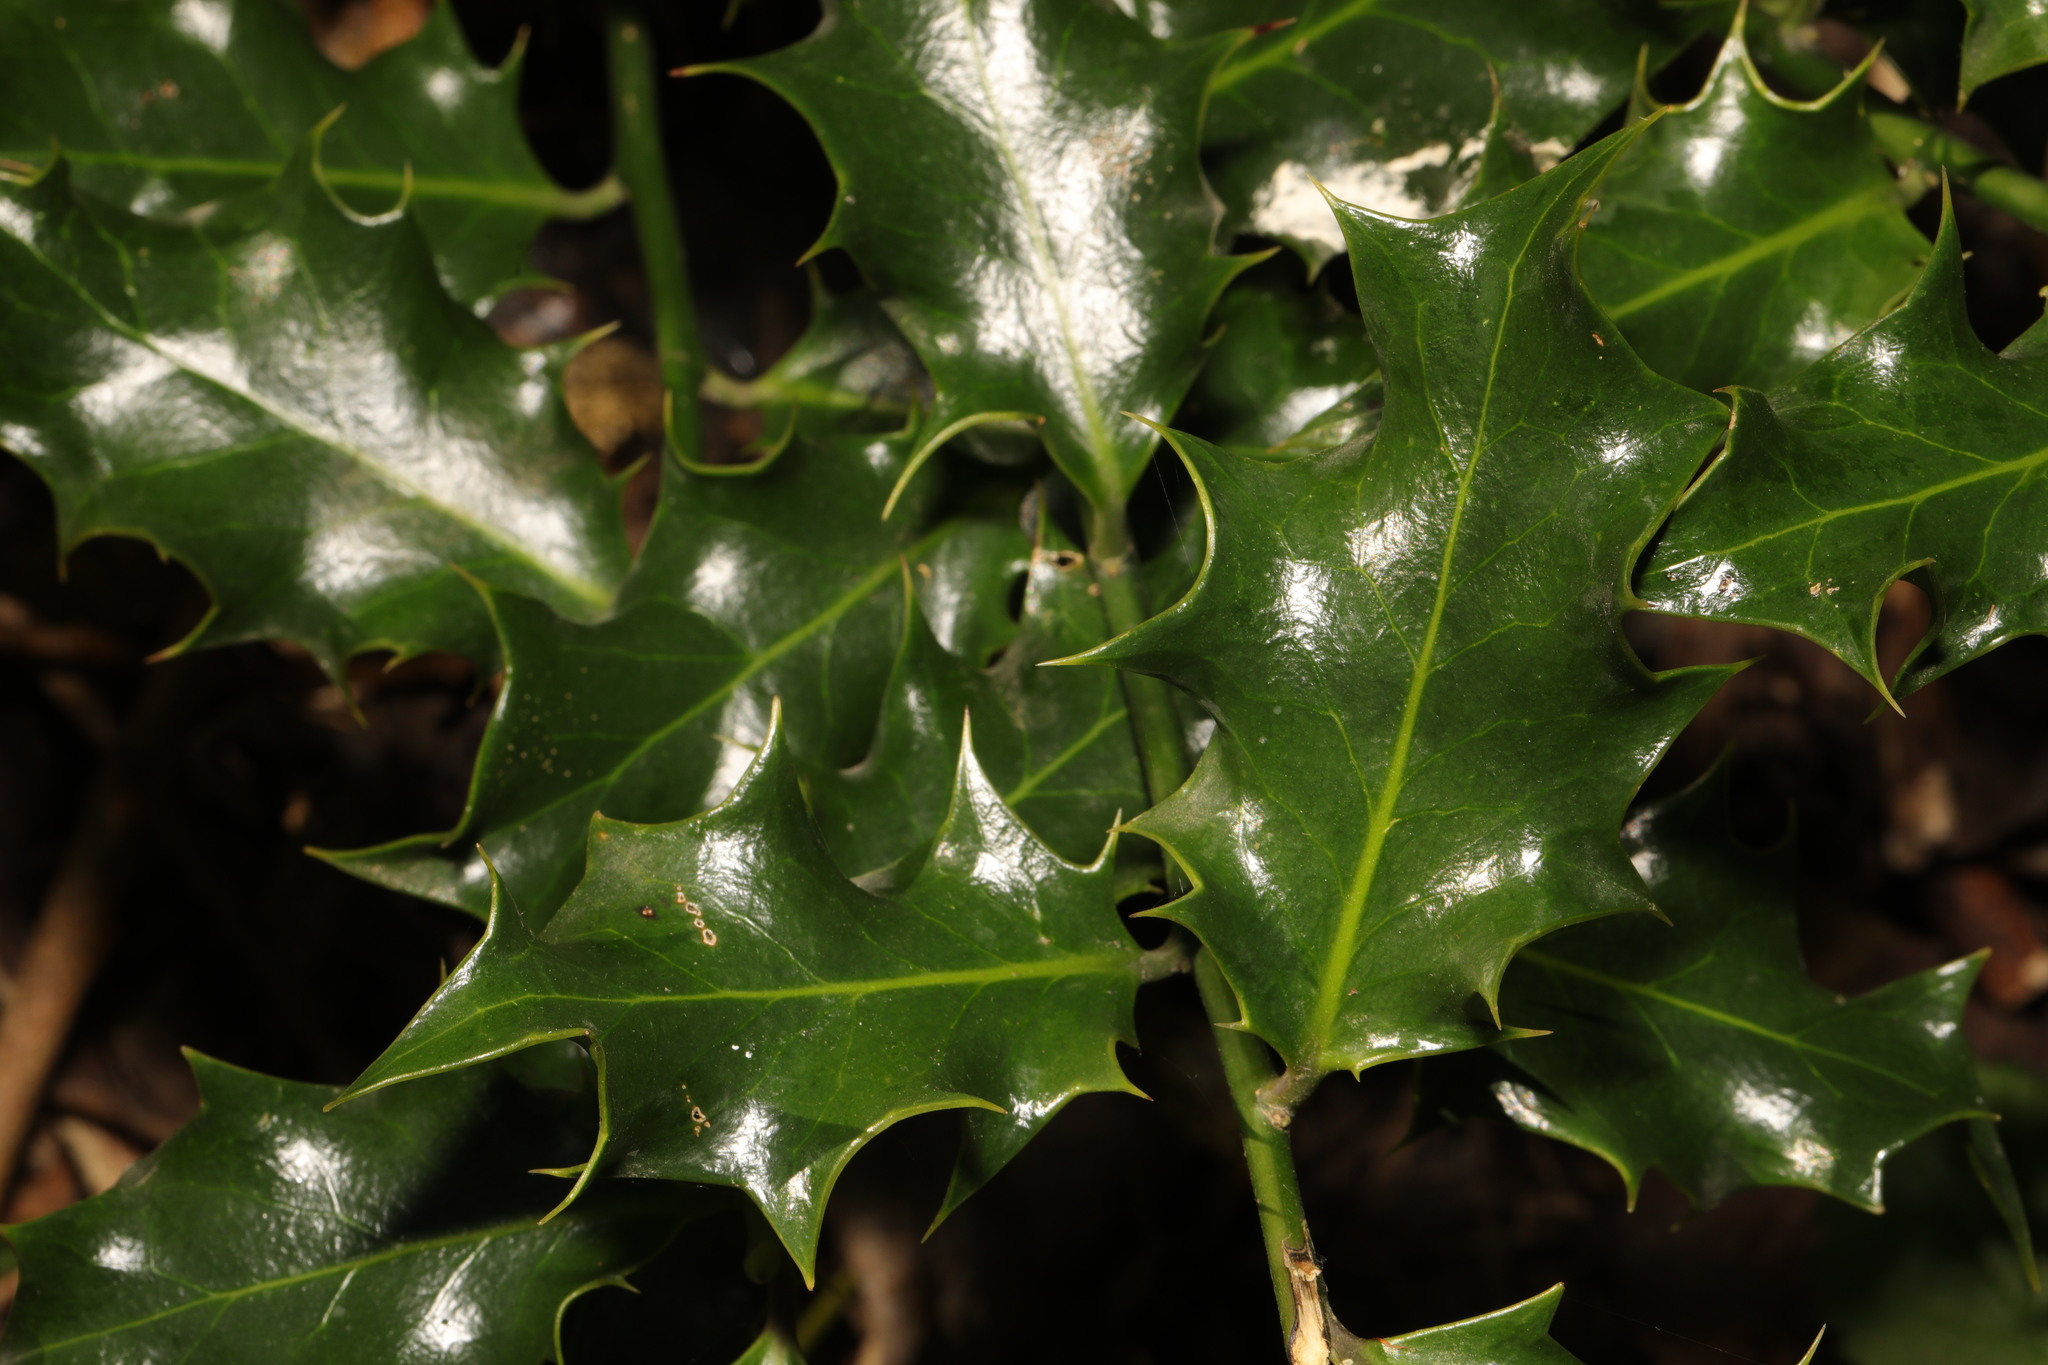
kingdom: Plantae
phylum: Tracheophyta
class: Magnoliopsida
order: Aquifoliales
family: Aquifoliaceae
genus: Ilex
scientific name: Ilex aquifolium
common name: English holly
